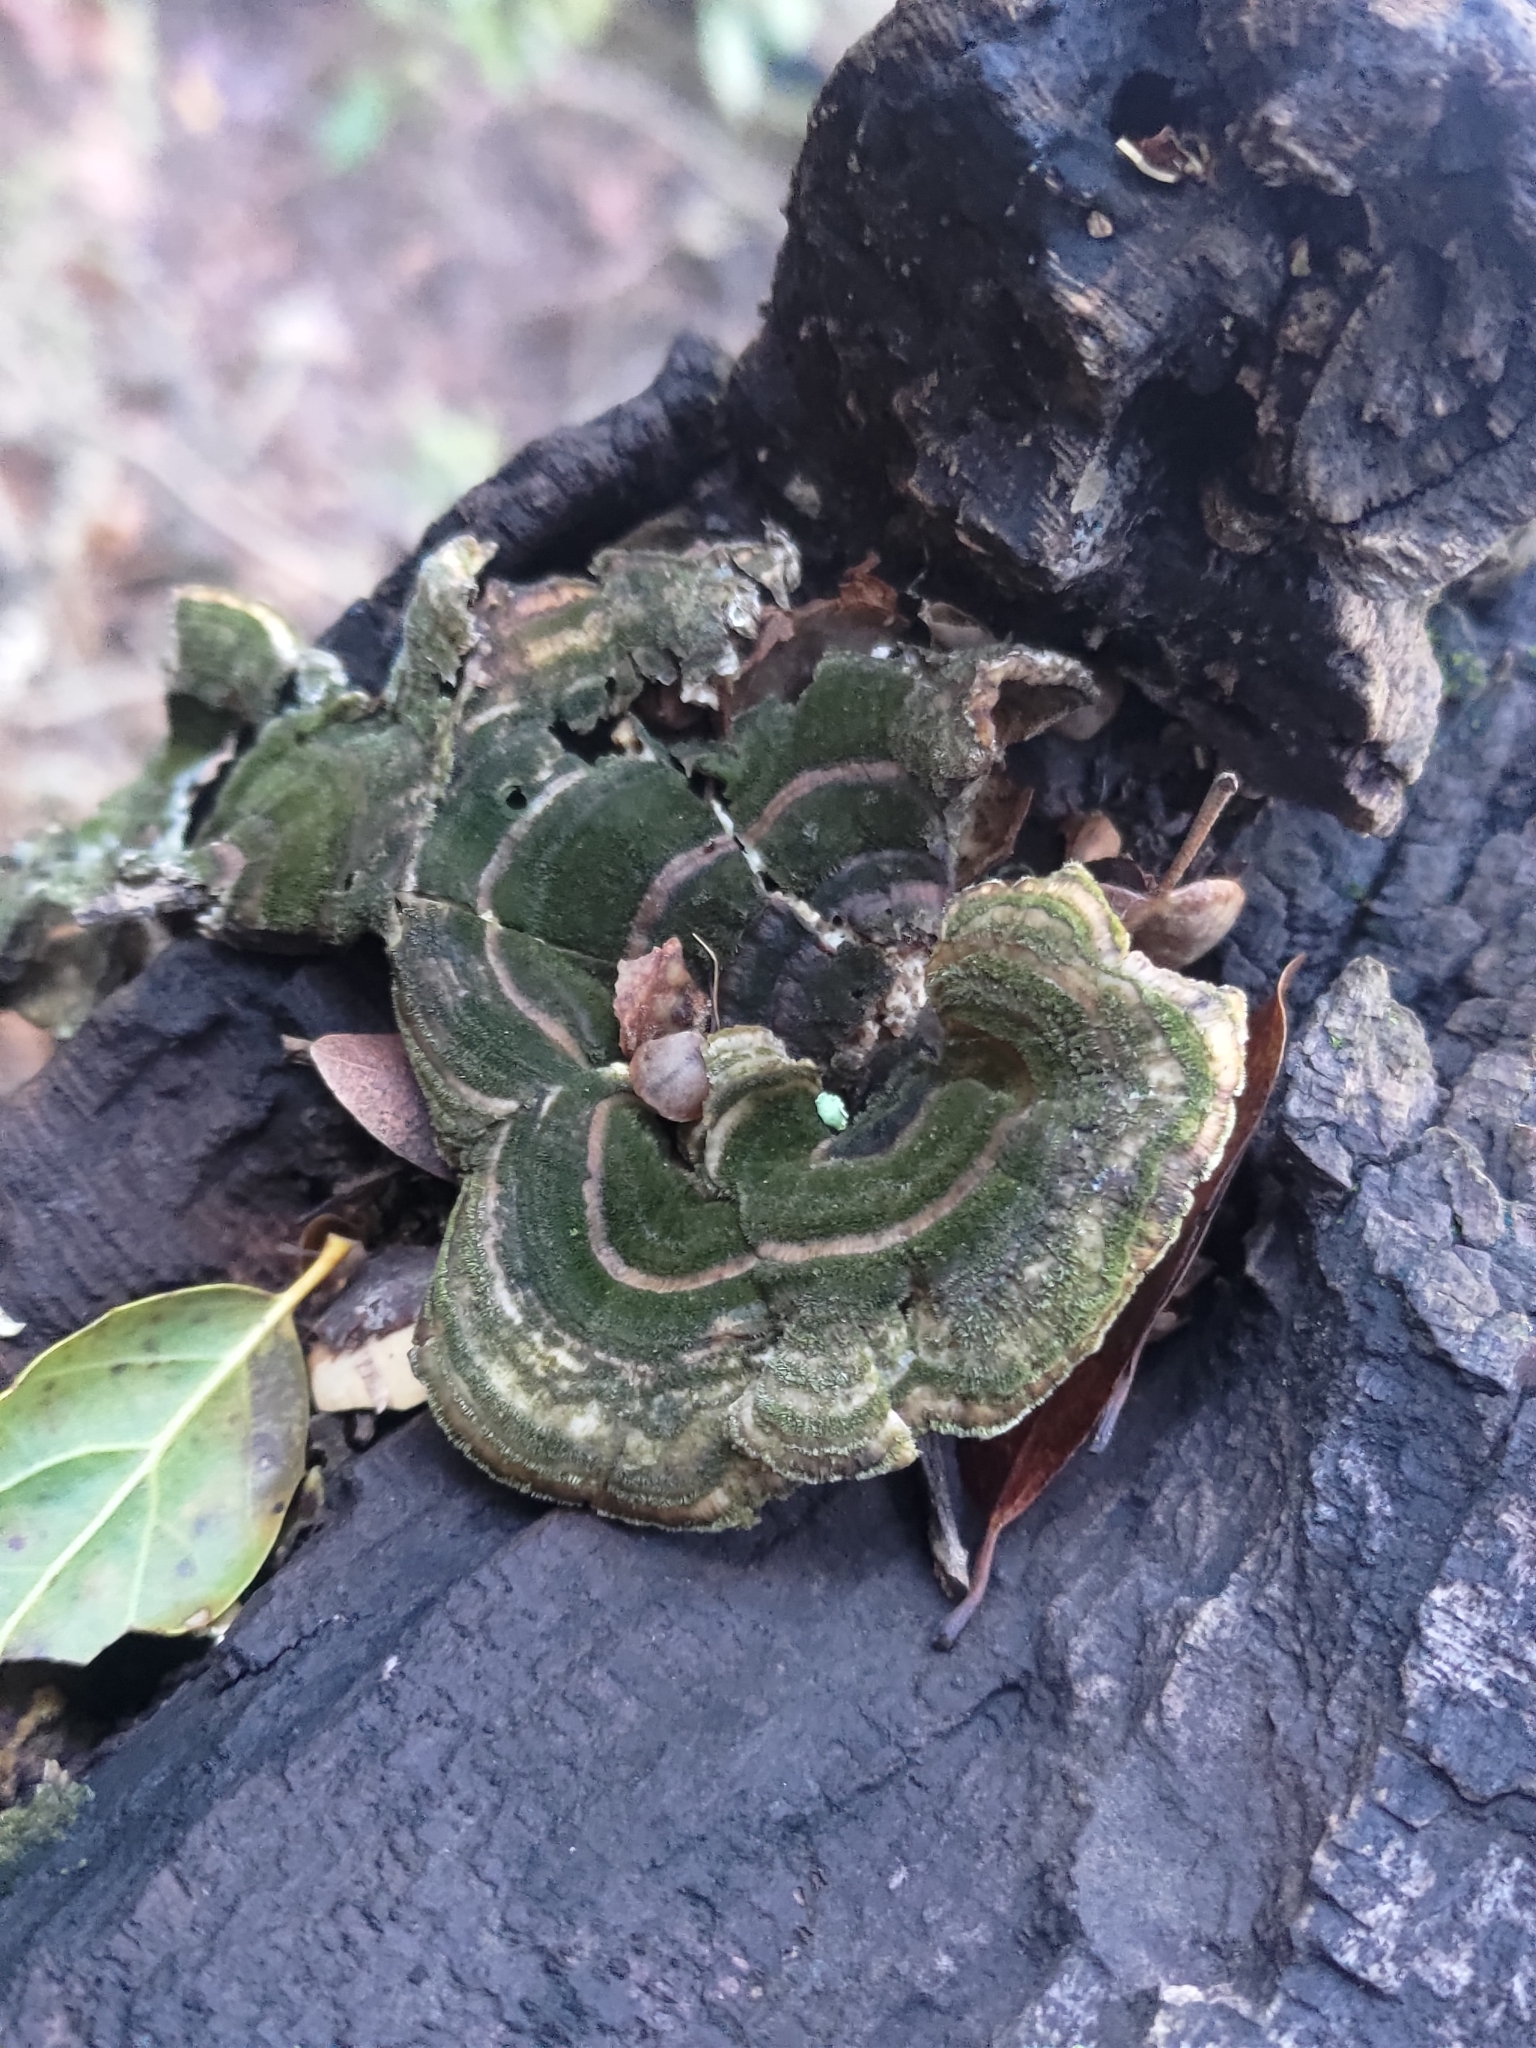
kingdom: Fungi
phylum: Basidiomycota
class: Agaricomycetes
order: Polyporales
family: Polyporaceae
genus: Trametes
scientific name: Trametes versicolor
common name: Turkeytail
